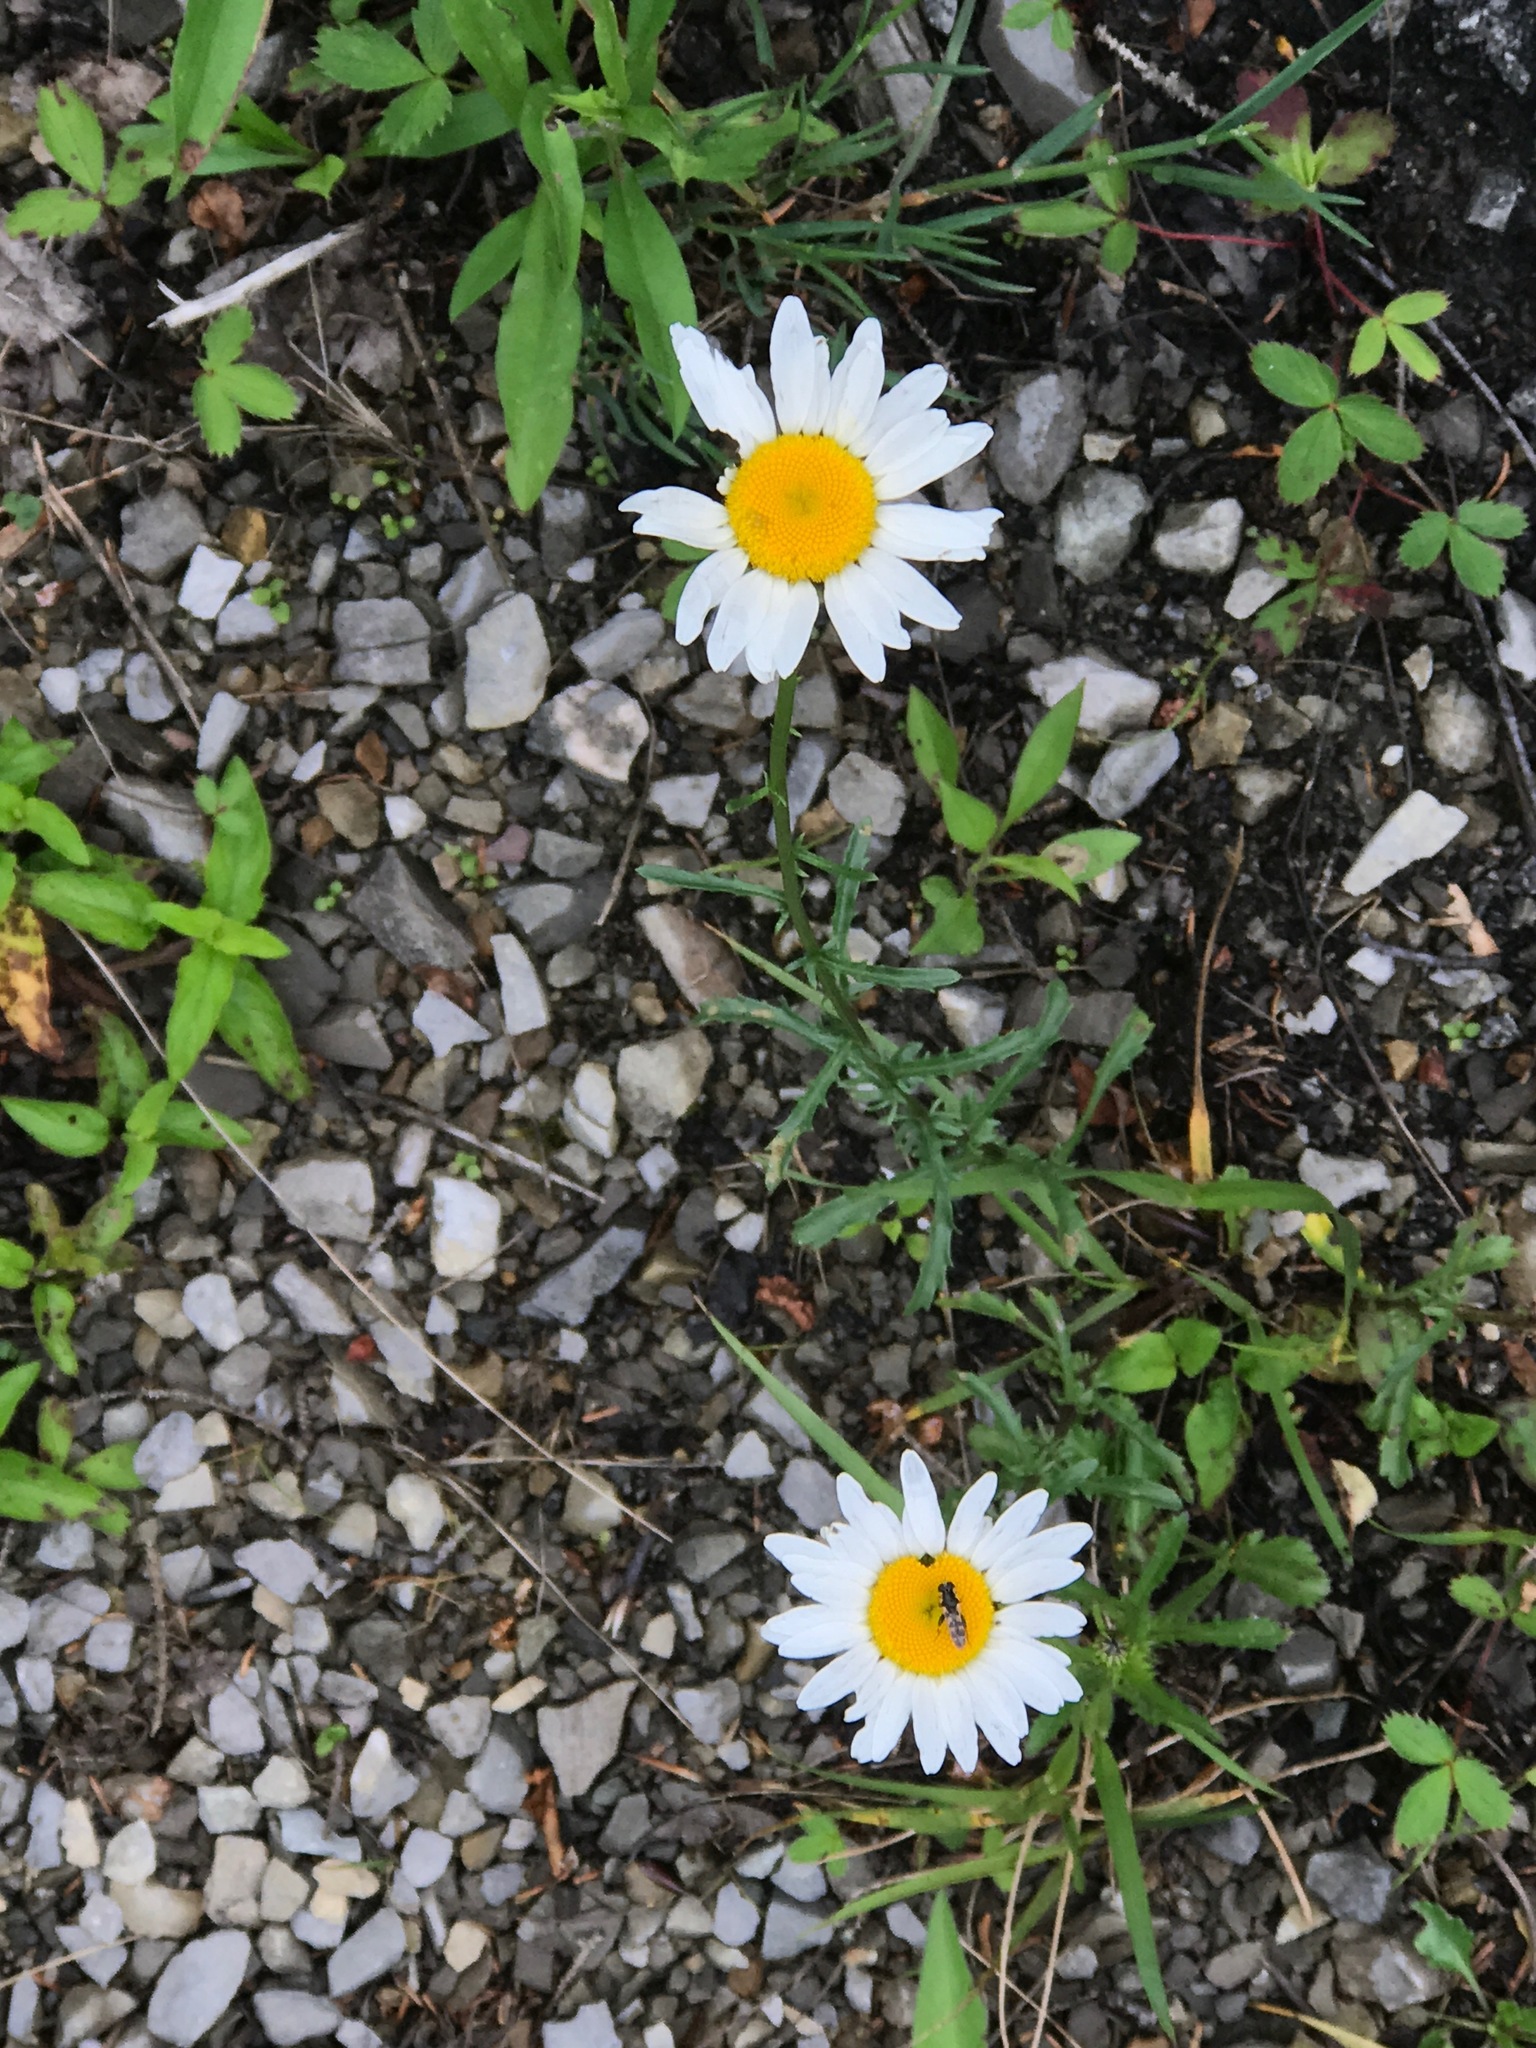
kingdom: Plantae
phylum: Tracheophyta
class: Magnoliopsida
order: Asterales
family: Asteraceae
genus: Leucanthemum
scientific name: Leucanthemum vulgare
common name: Oxeye daisy
